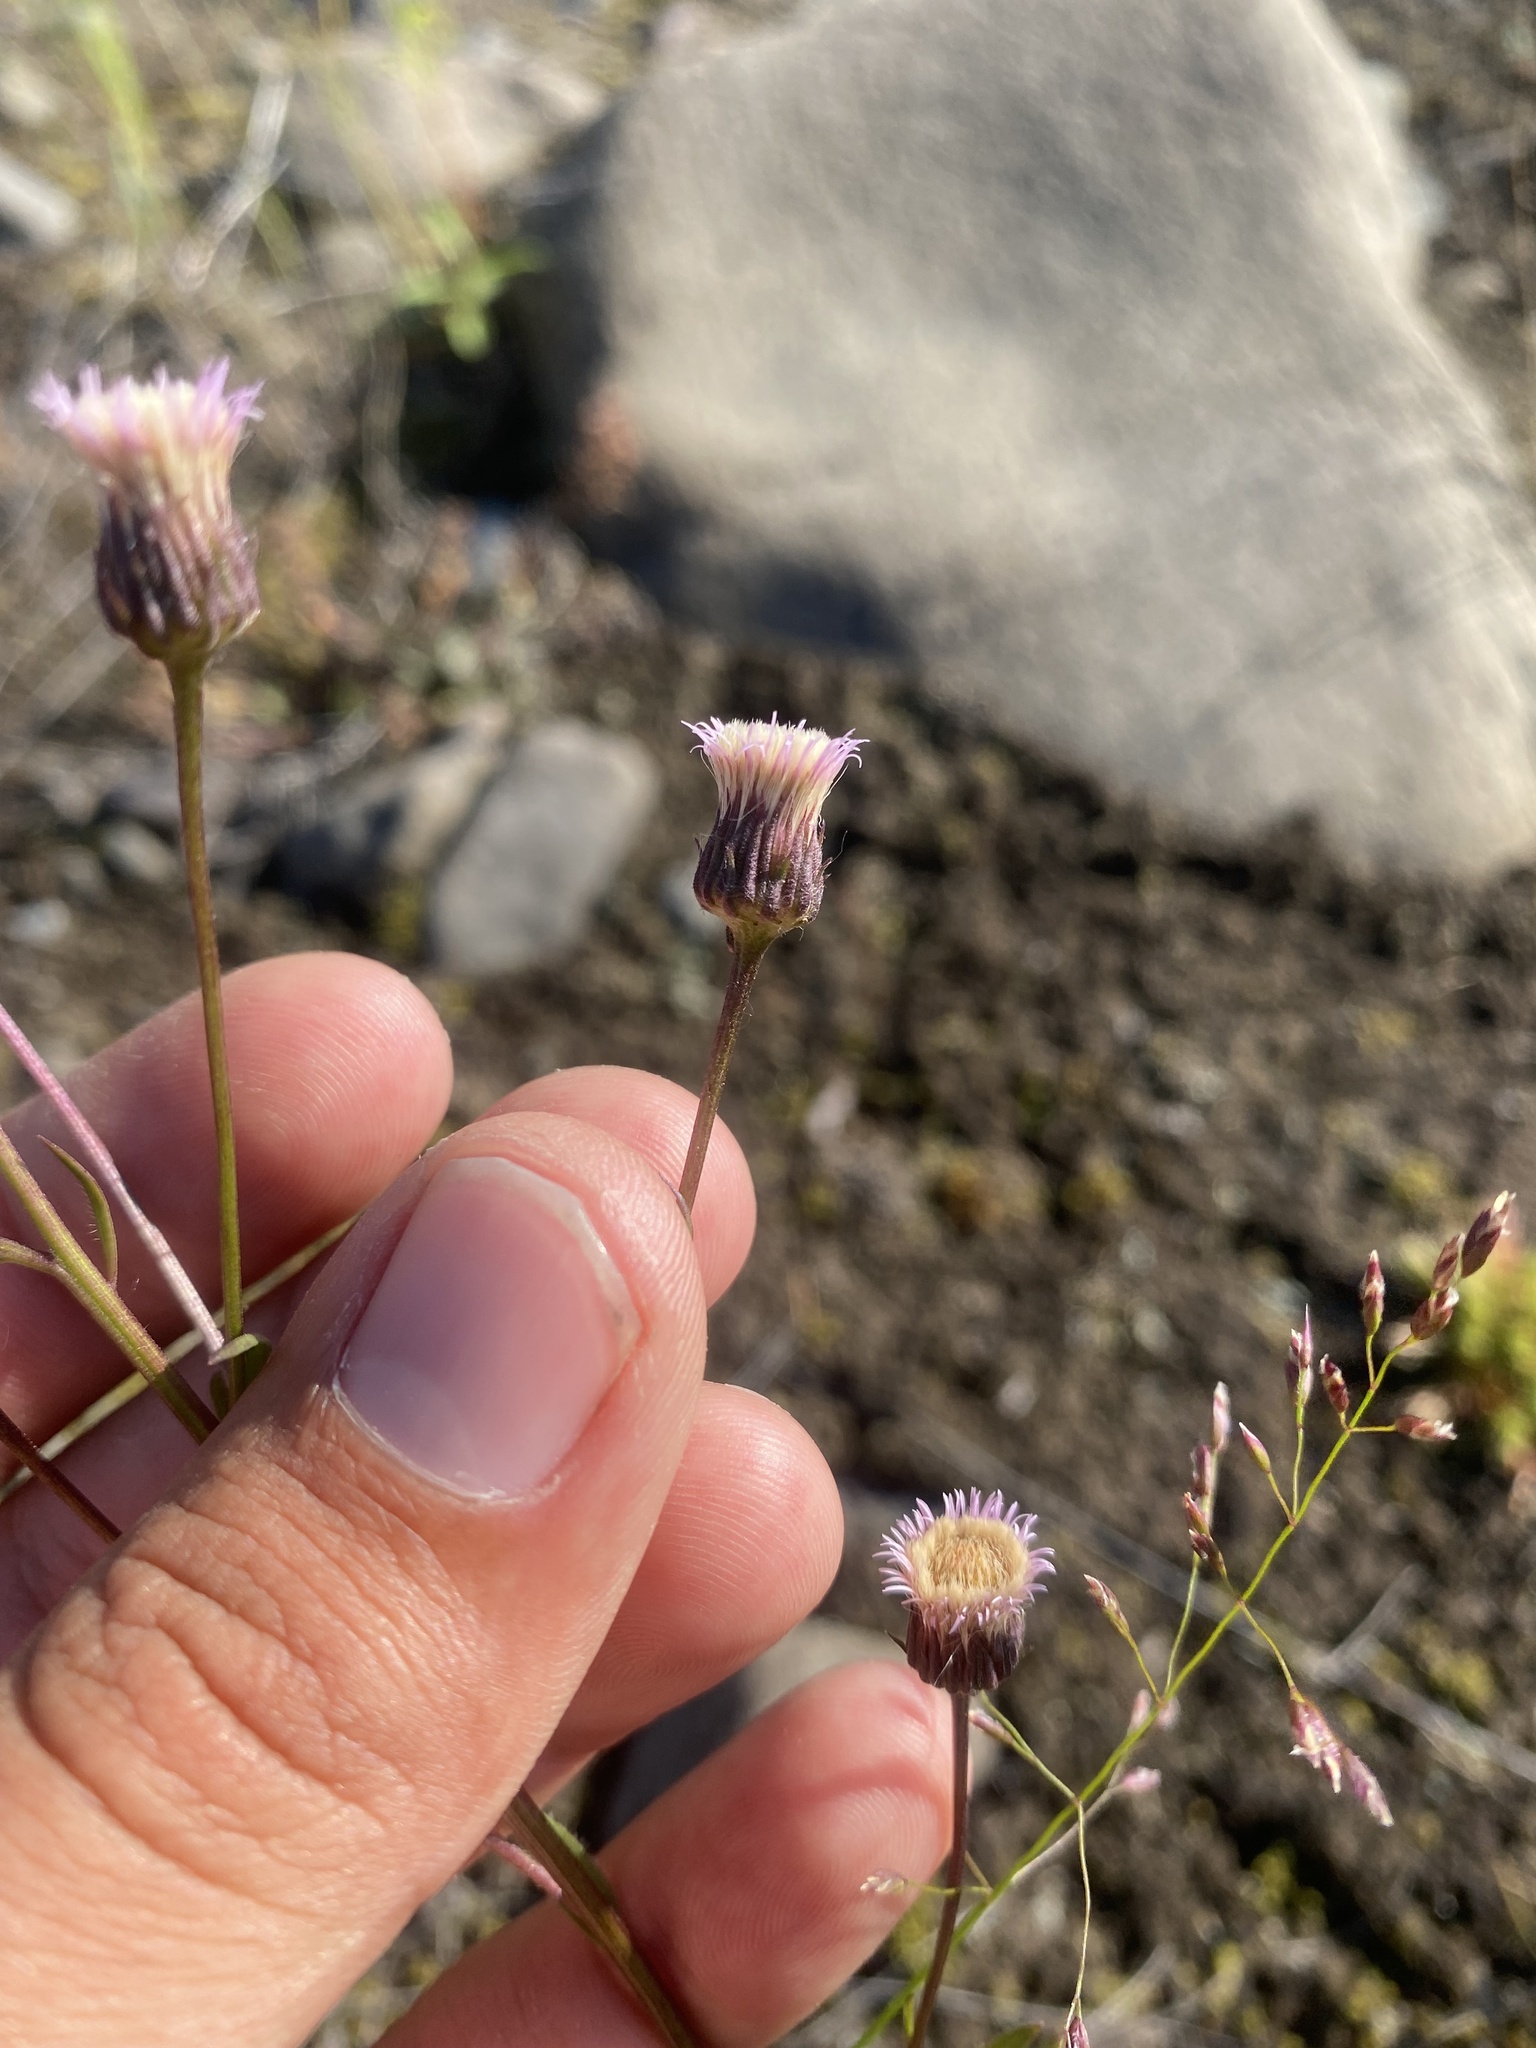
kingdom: Plantae
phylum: Tracheophyta
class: Magnoliopsida
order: Asterales
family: Asteraceae
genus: Erigeron
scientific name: Erigeron acris
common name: Blue fleabane
